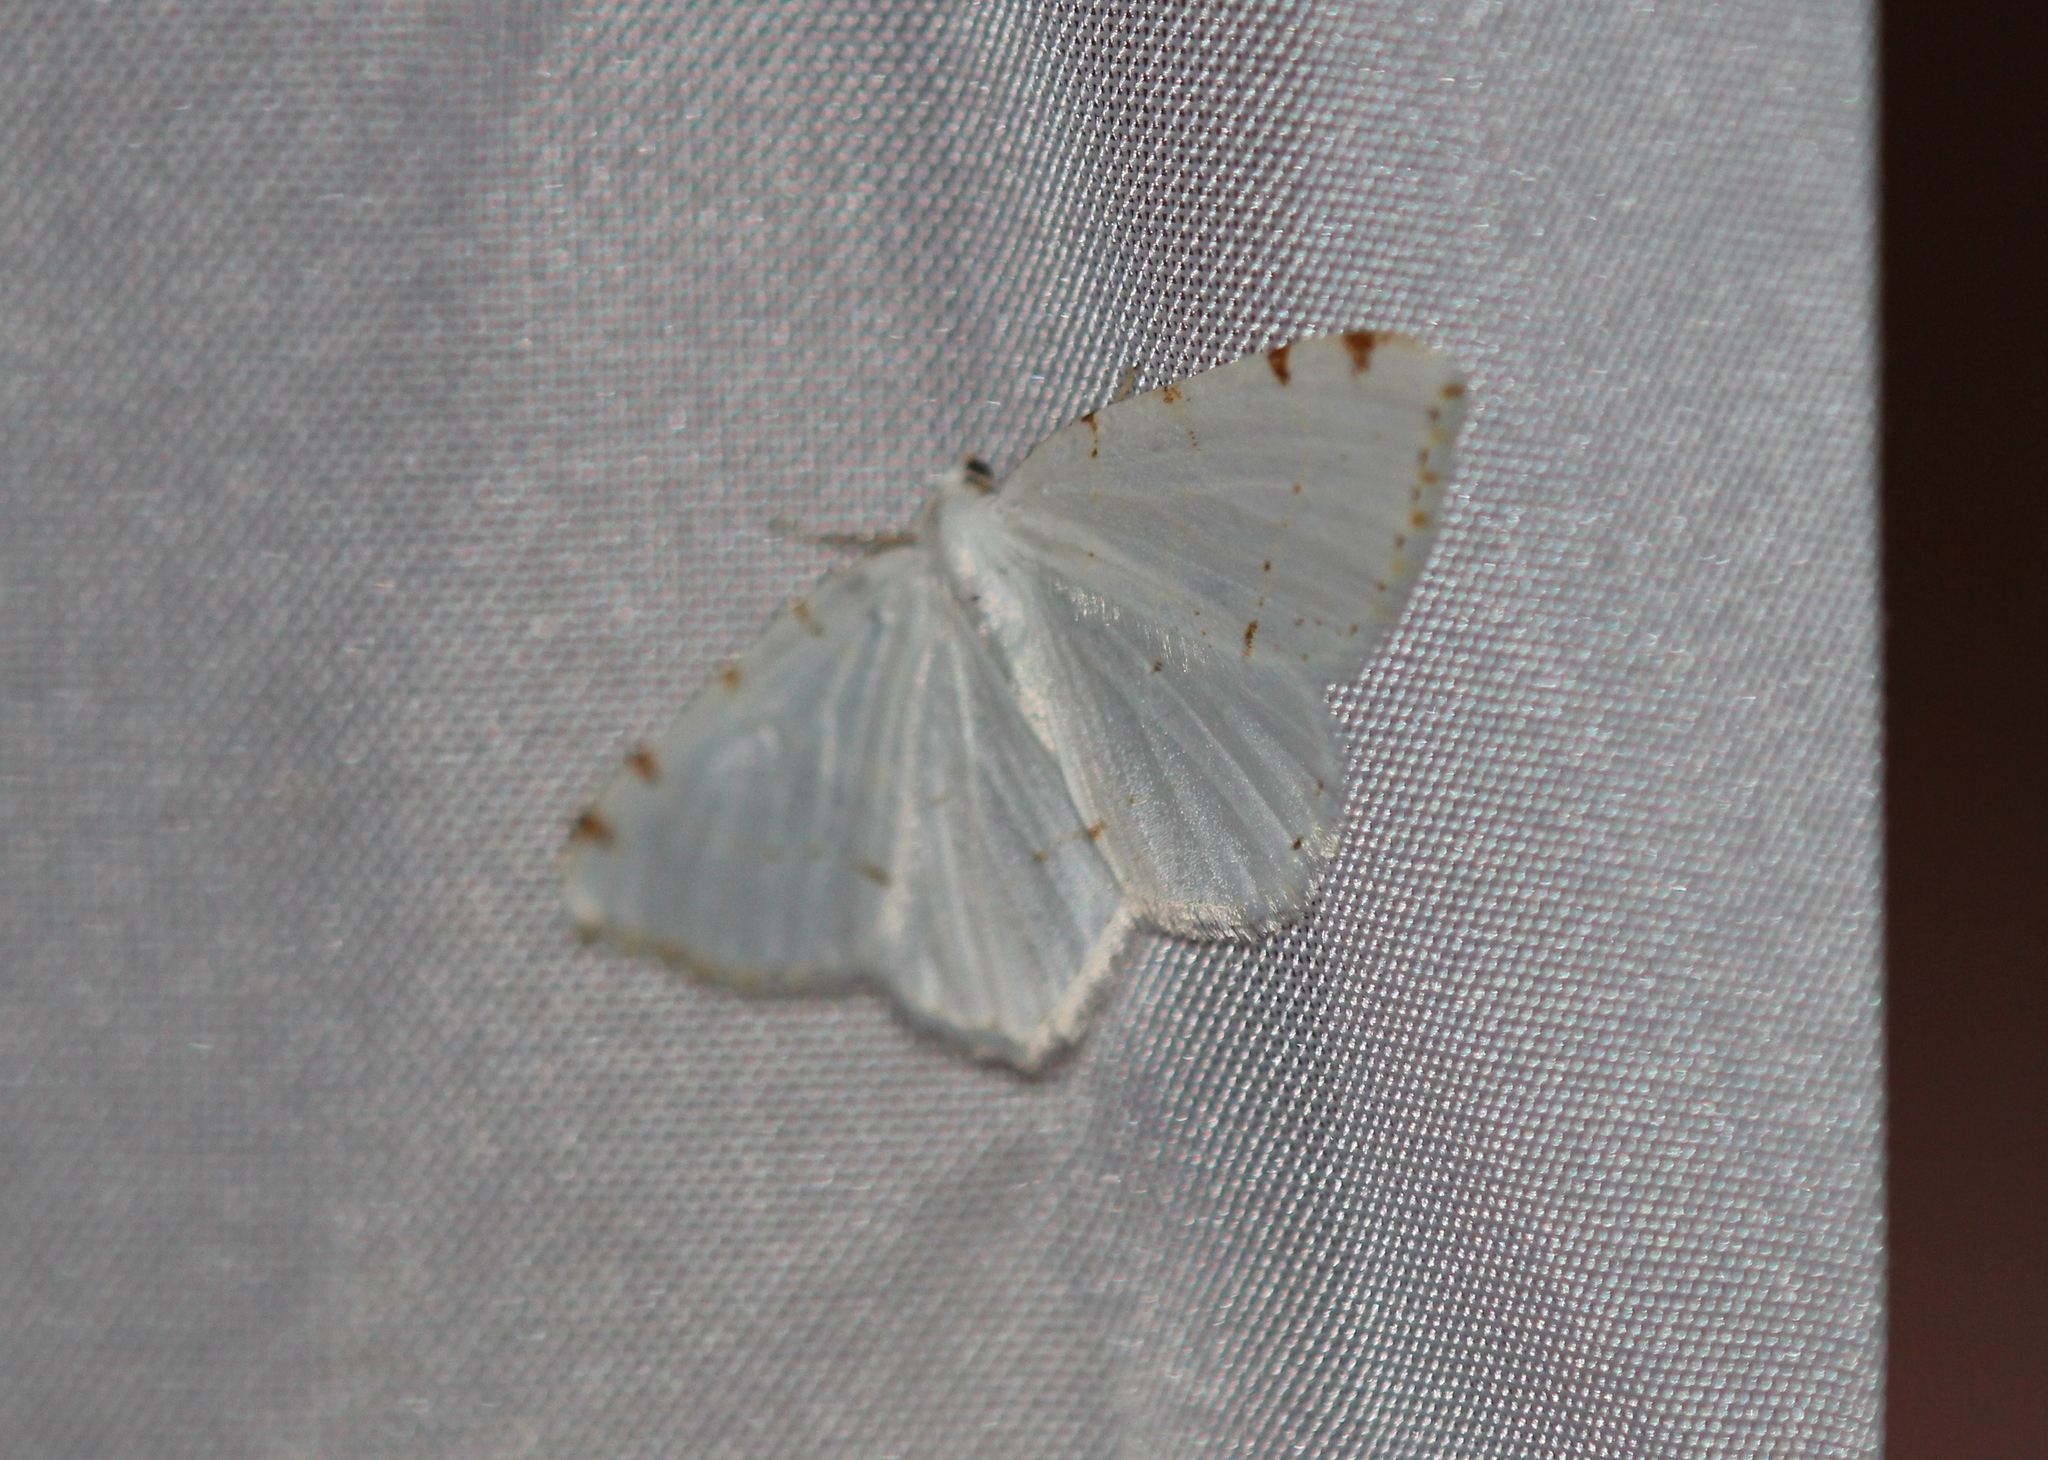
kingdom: Animalia
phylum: Arthropoda
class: Insecta
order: Lepidoptera
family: Geometridae
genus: Macaria
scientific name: Macaria pustularia
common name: Lesser maple spanworm moth
